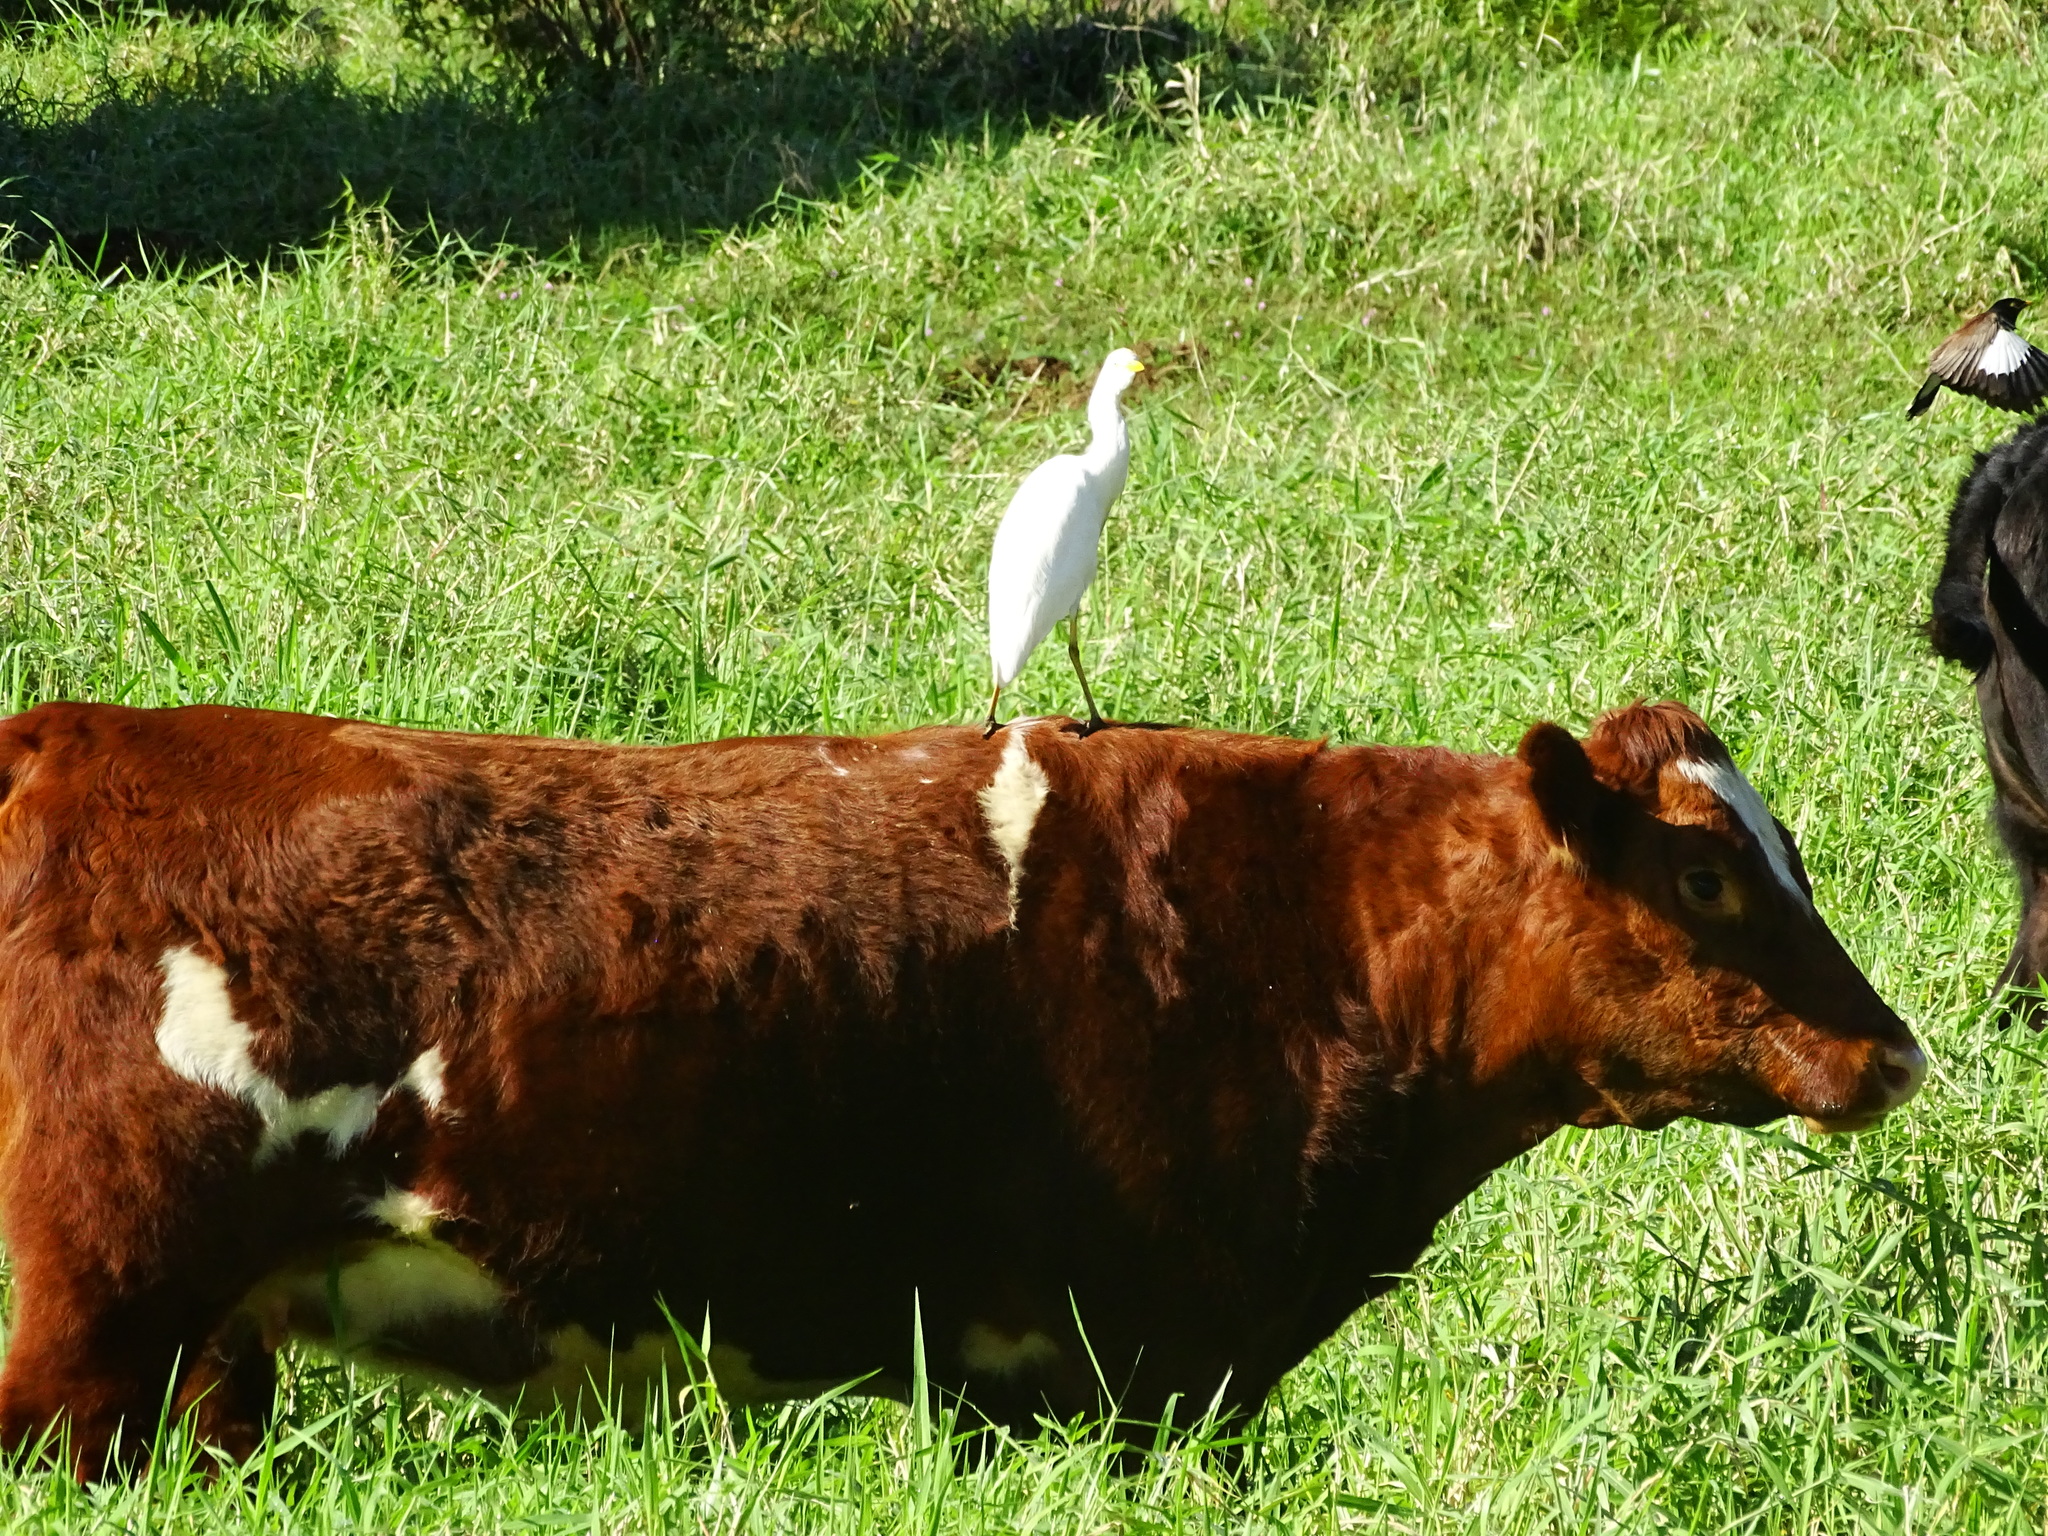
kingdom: Animalia
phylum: Chordata
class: Aves
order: Pelecaniformes
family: Ardeidae
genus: Bubulcus
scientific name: Bubulcus ibis
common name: Cattle egret
